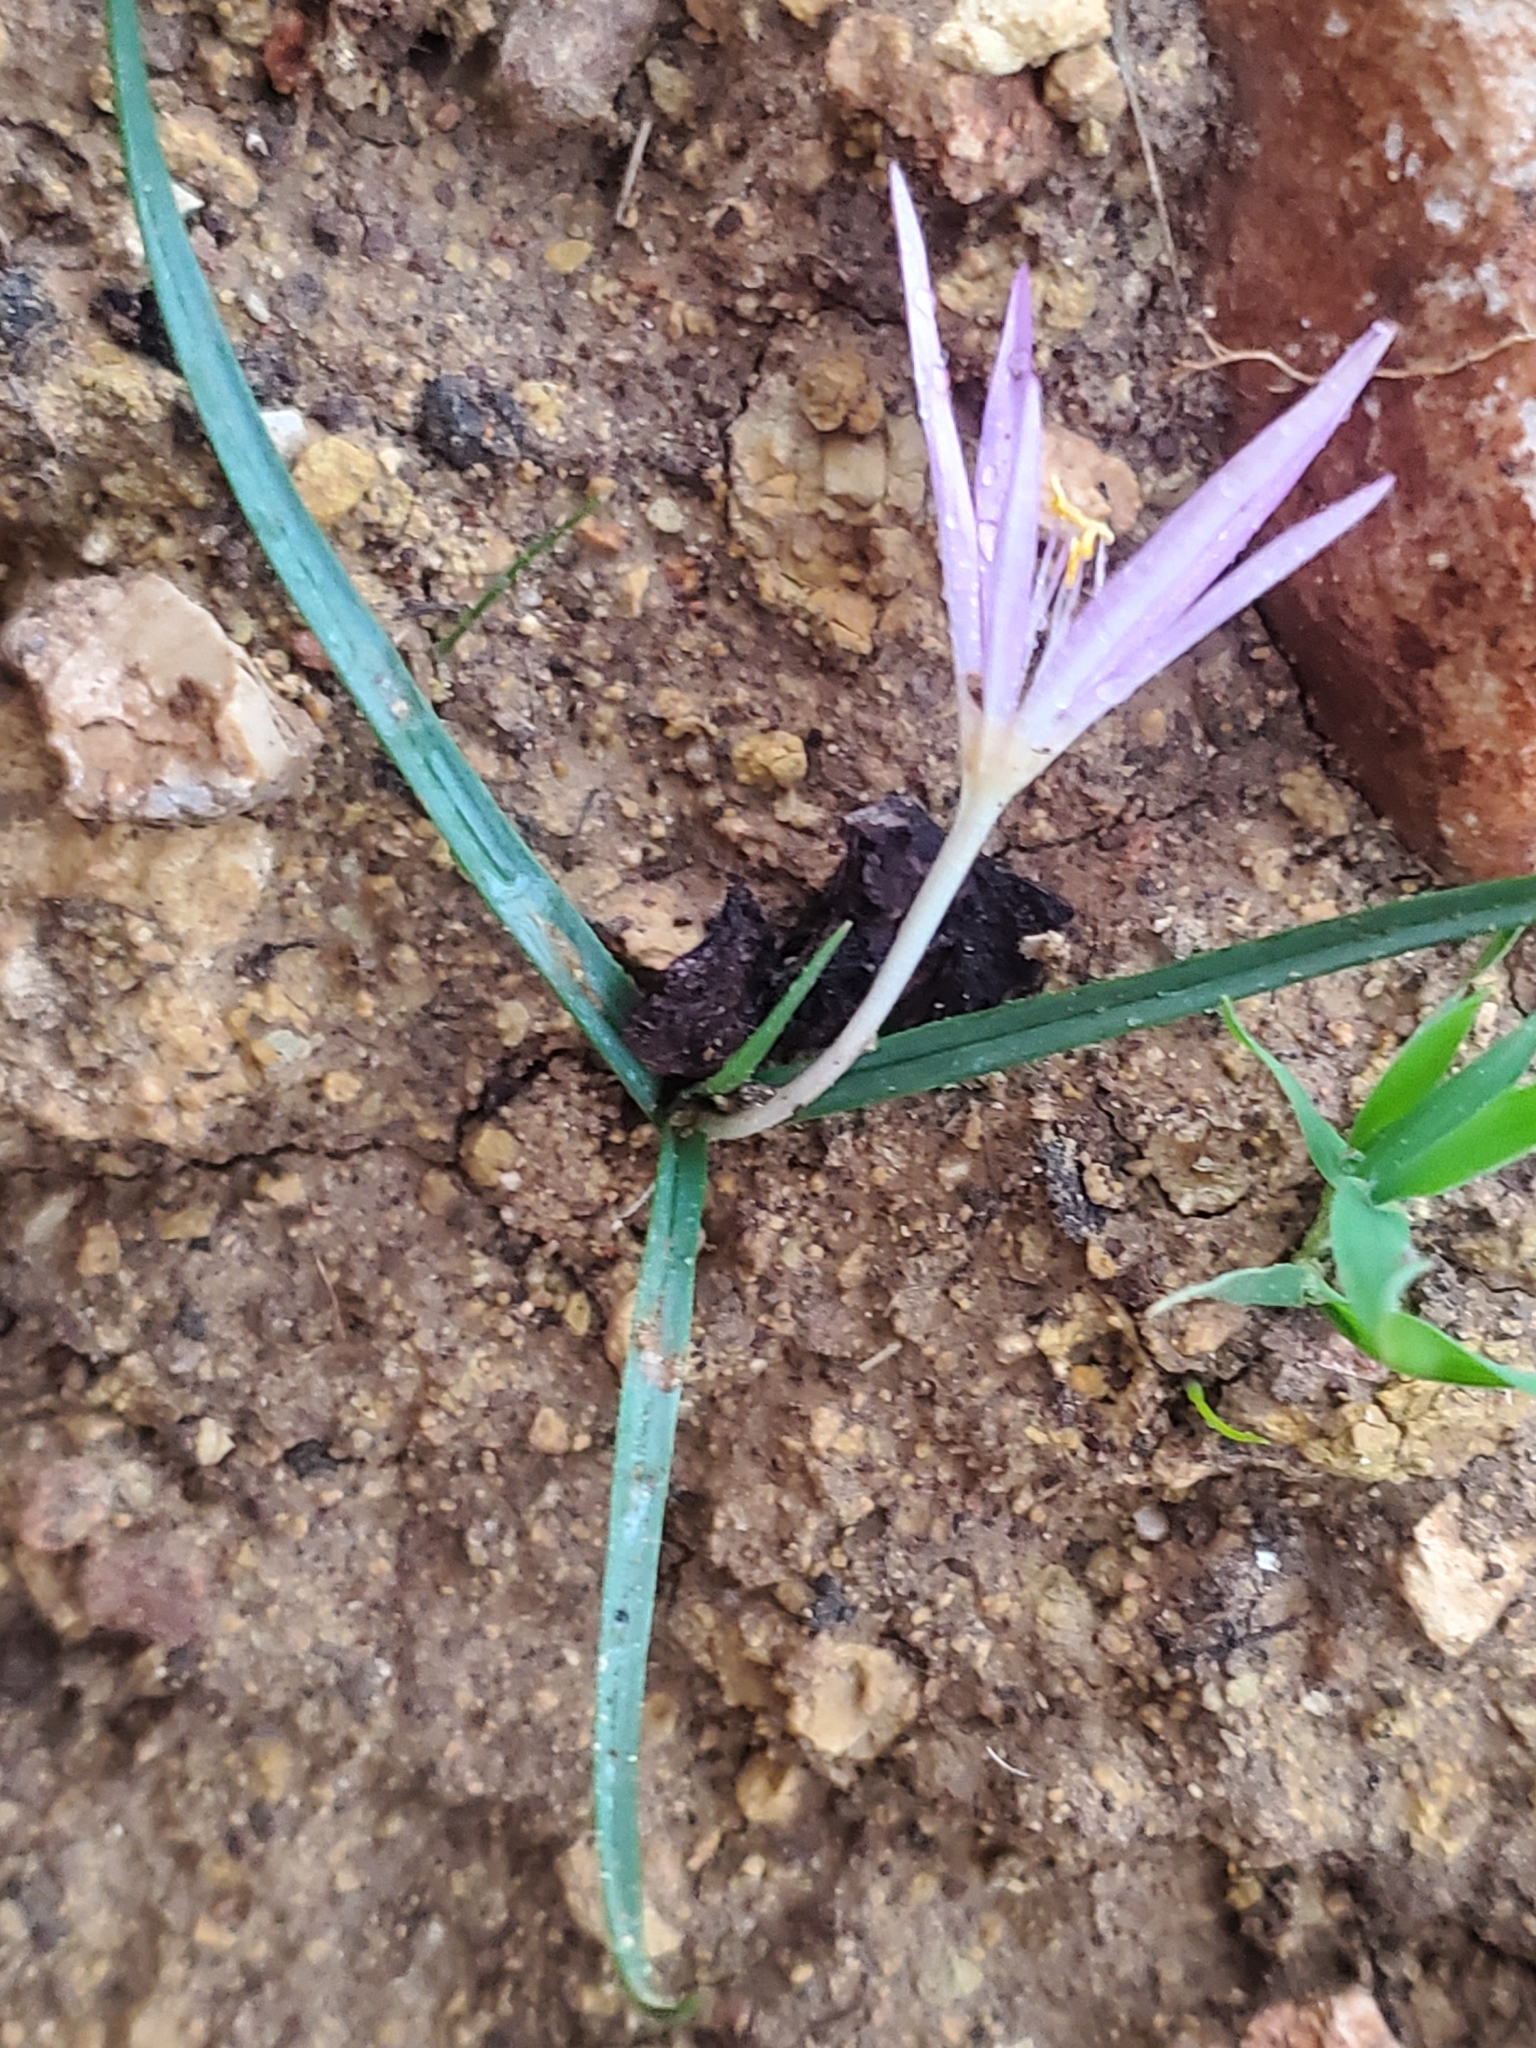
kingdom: Plantae
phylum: Tracheophyta
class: Liliopsida
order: Liliales
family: Colchicaceae
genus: Colchicum
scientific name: Colchicum stevenii
